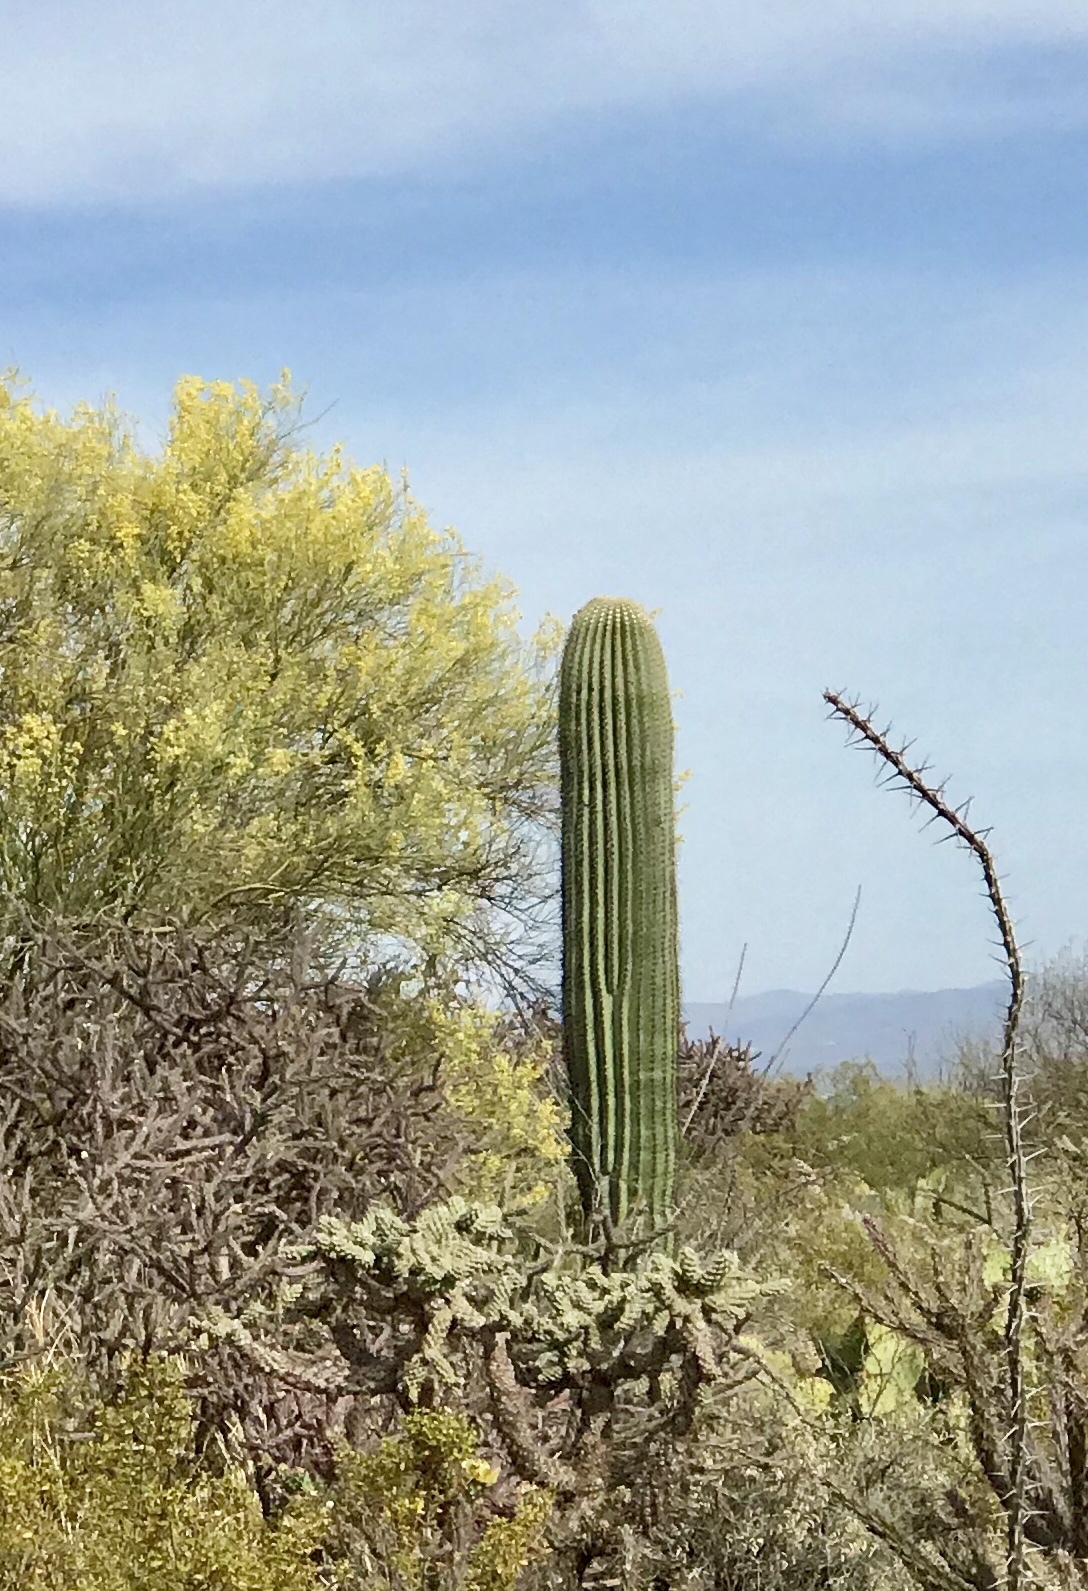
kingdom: Plantae
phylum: Tracheophyta
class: Magnoliopsida
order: Caryophyllales
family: Cactaceae
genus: Carnegiea
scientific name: Carnegiea gigantea
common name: Saguaro
